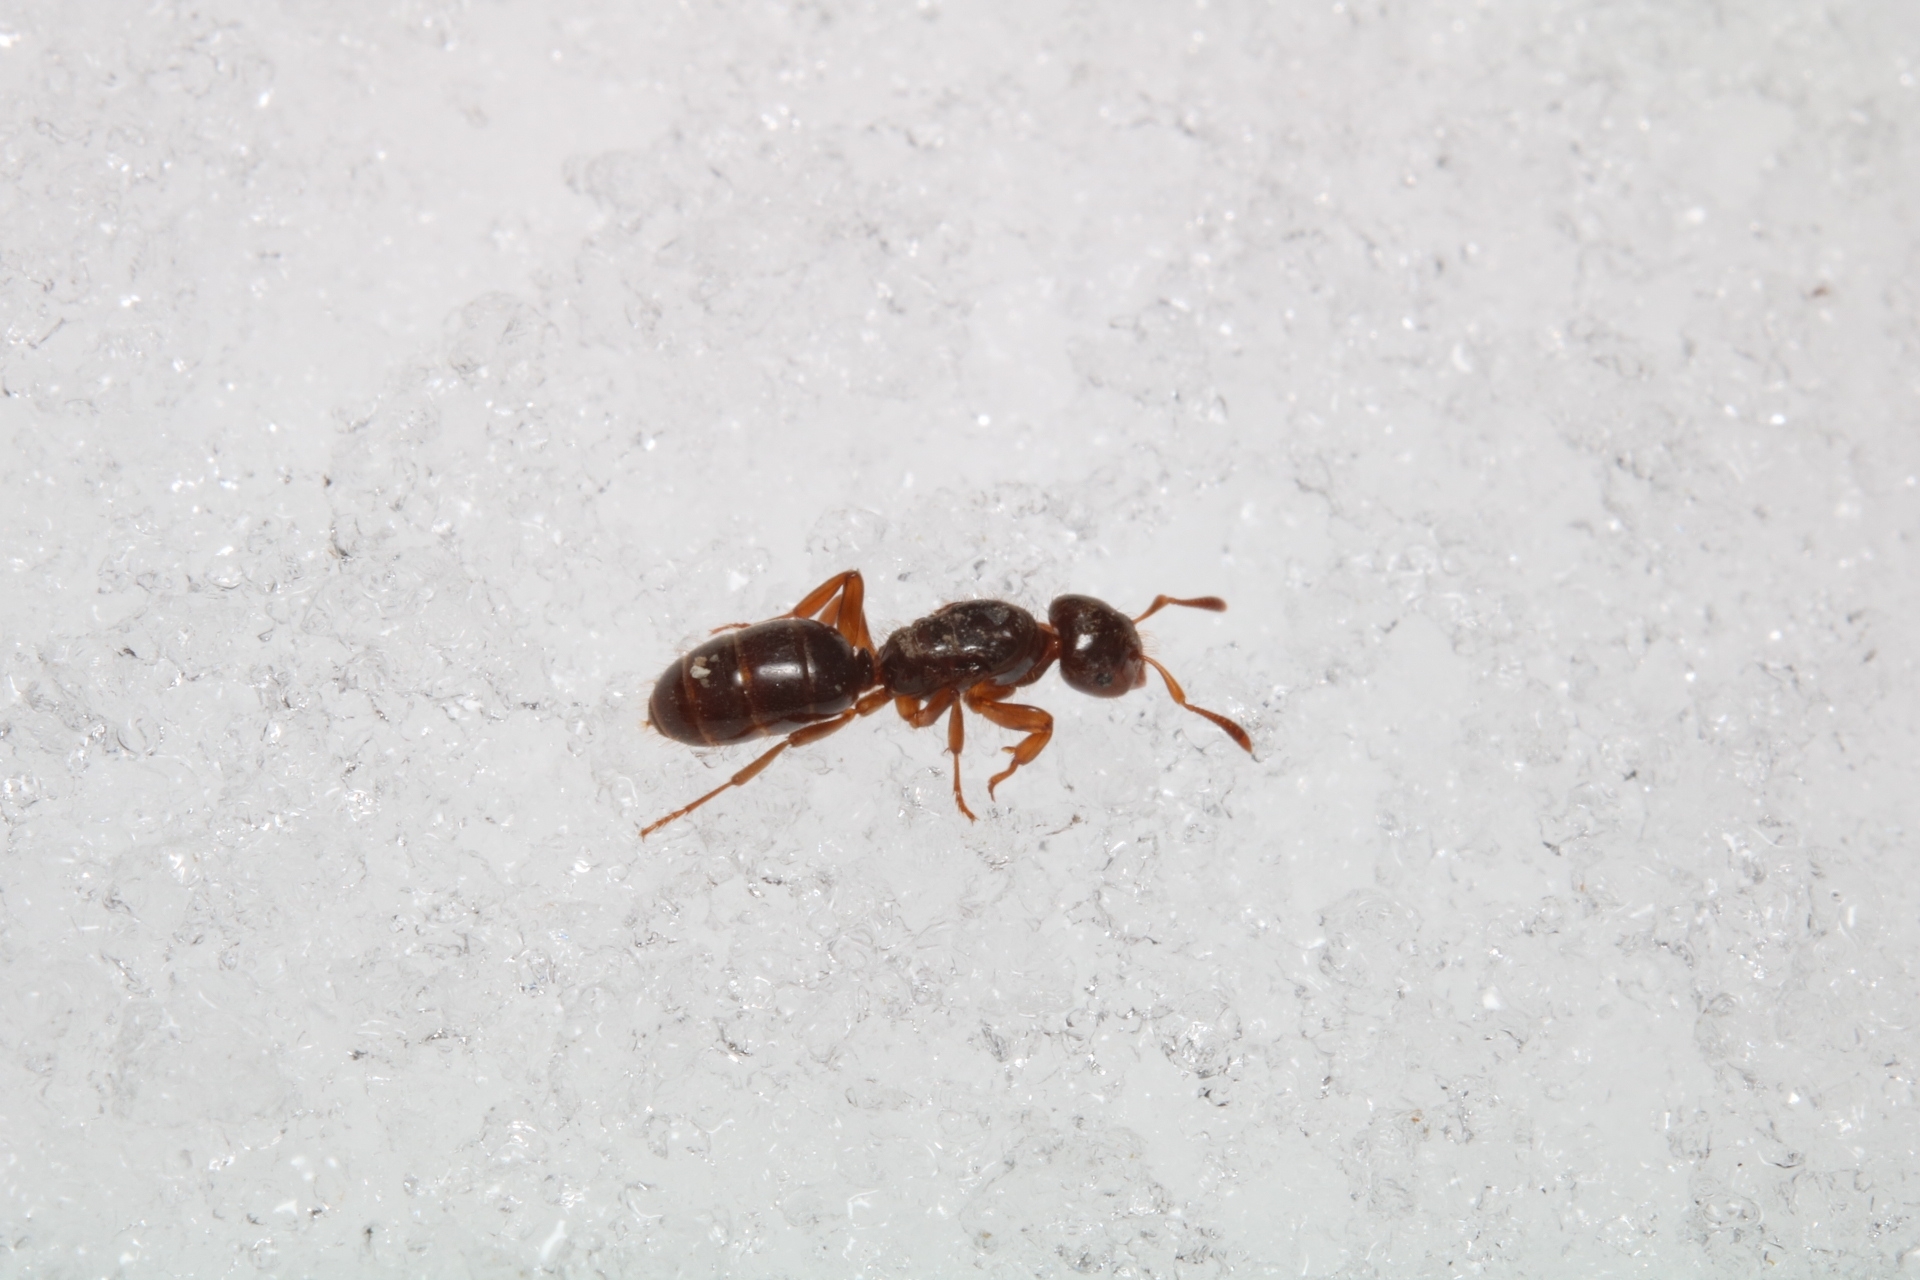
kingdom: Animalia
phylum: Arthropoda
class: Insecta
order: Hymenoptera
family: Formicidae
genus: Lasius
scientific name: Lasius claviger
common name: Common citronella ant
